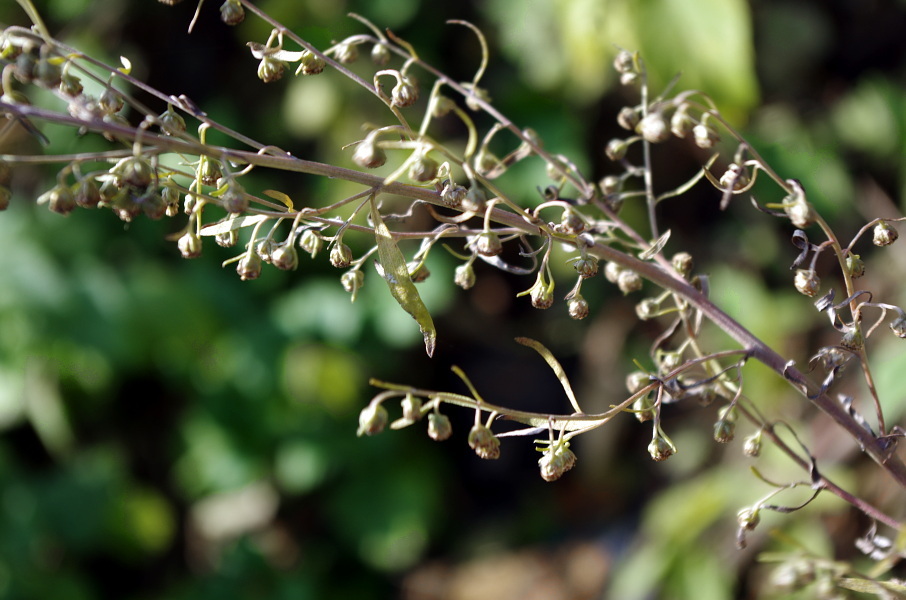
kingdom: Plantae
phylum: Tracheophyta
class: Magnoliopsida
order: Asterales
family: Asteraceae
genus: Artemisia
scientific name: Artemisia absinthium
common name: Wormwood
